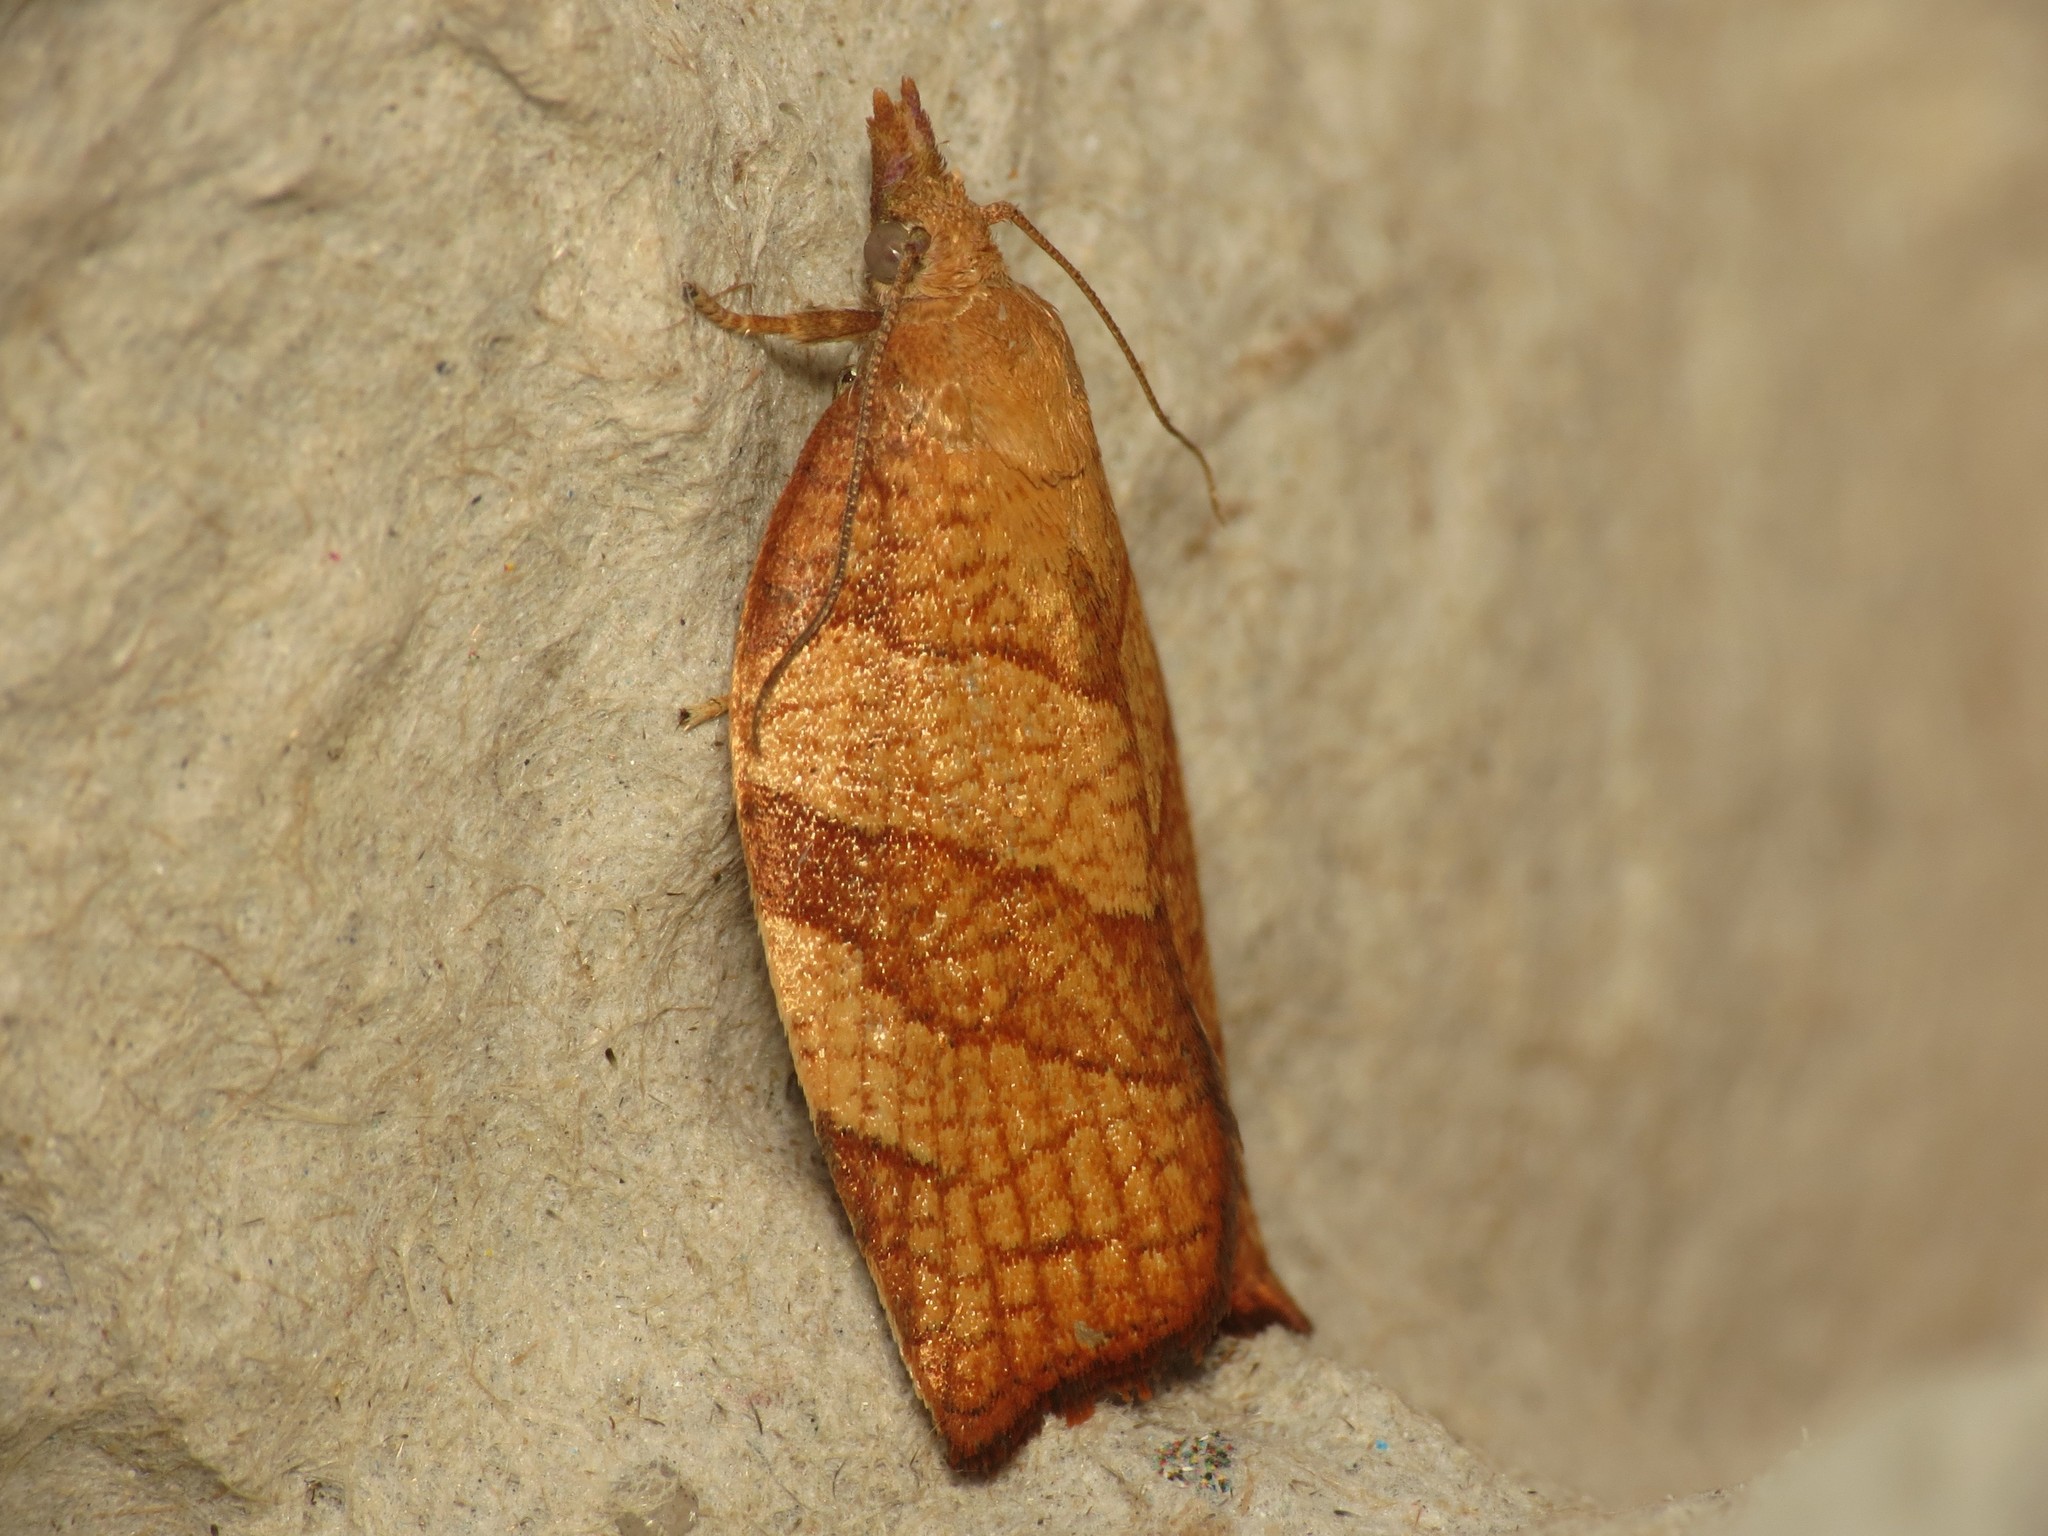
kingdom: Animalia
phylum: Arthropoda
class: Insecta
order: Lepidoptera
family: Tortricidae
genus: Pandemis
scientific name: Pandemis corylana
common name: Chequered fruit-tree tortrix
